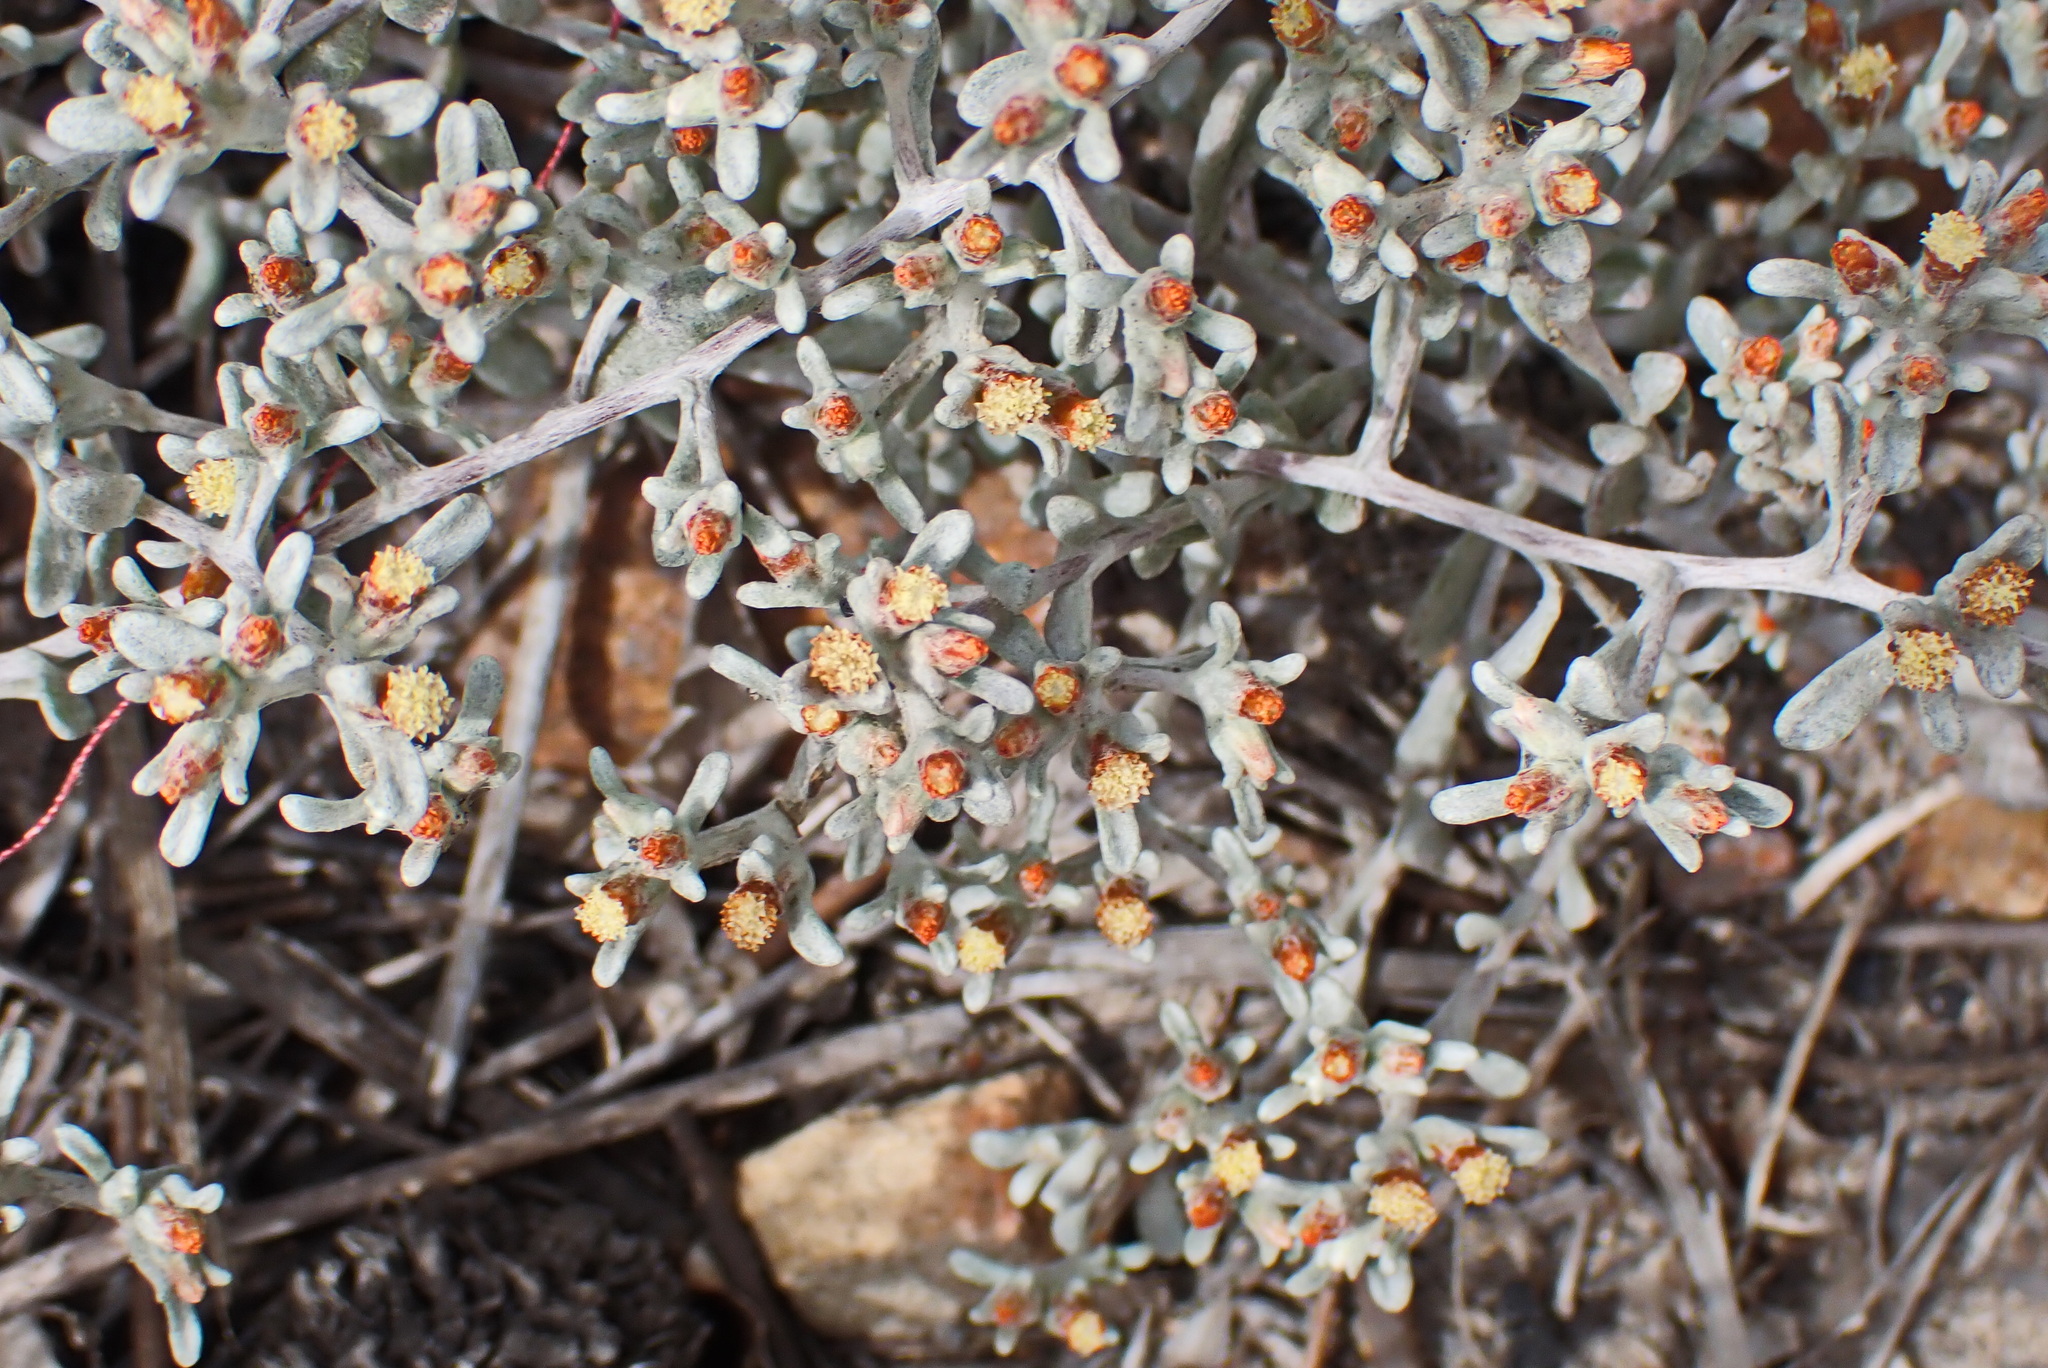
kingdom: Plantae
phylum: Tracheophyta
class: Magnoliopsida
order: Asterales
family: Asteraceae
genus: Helichrysum
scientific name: Helichrysum tinctum
